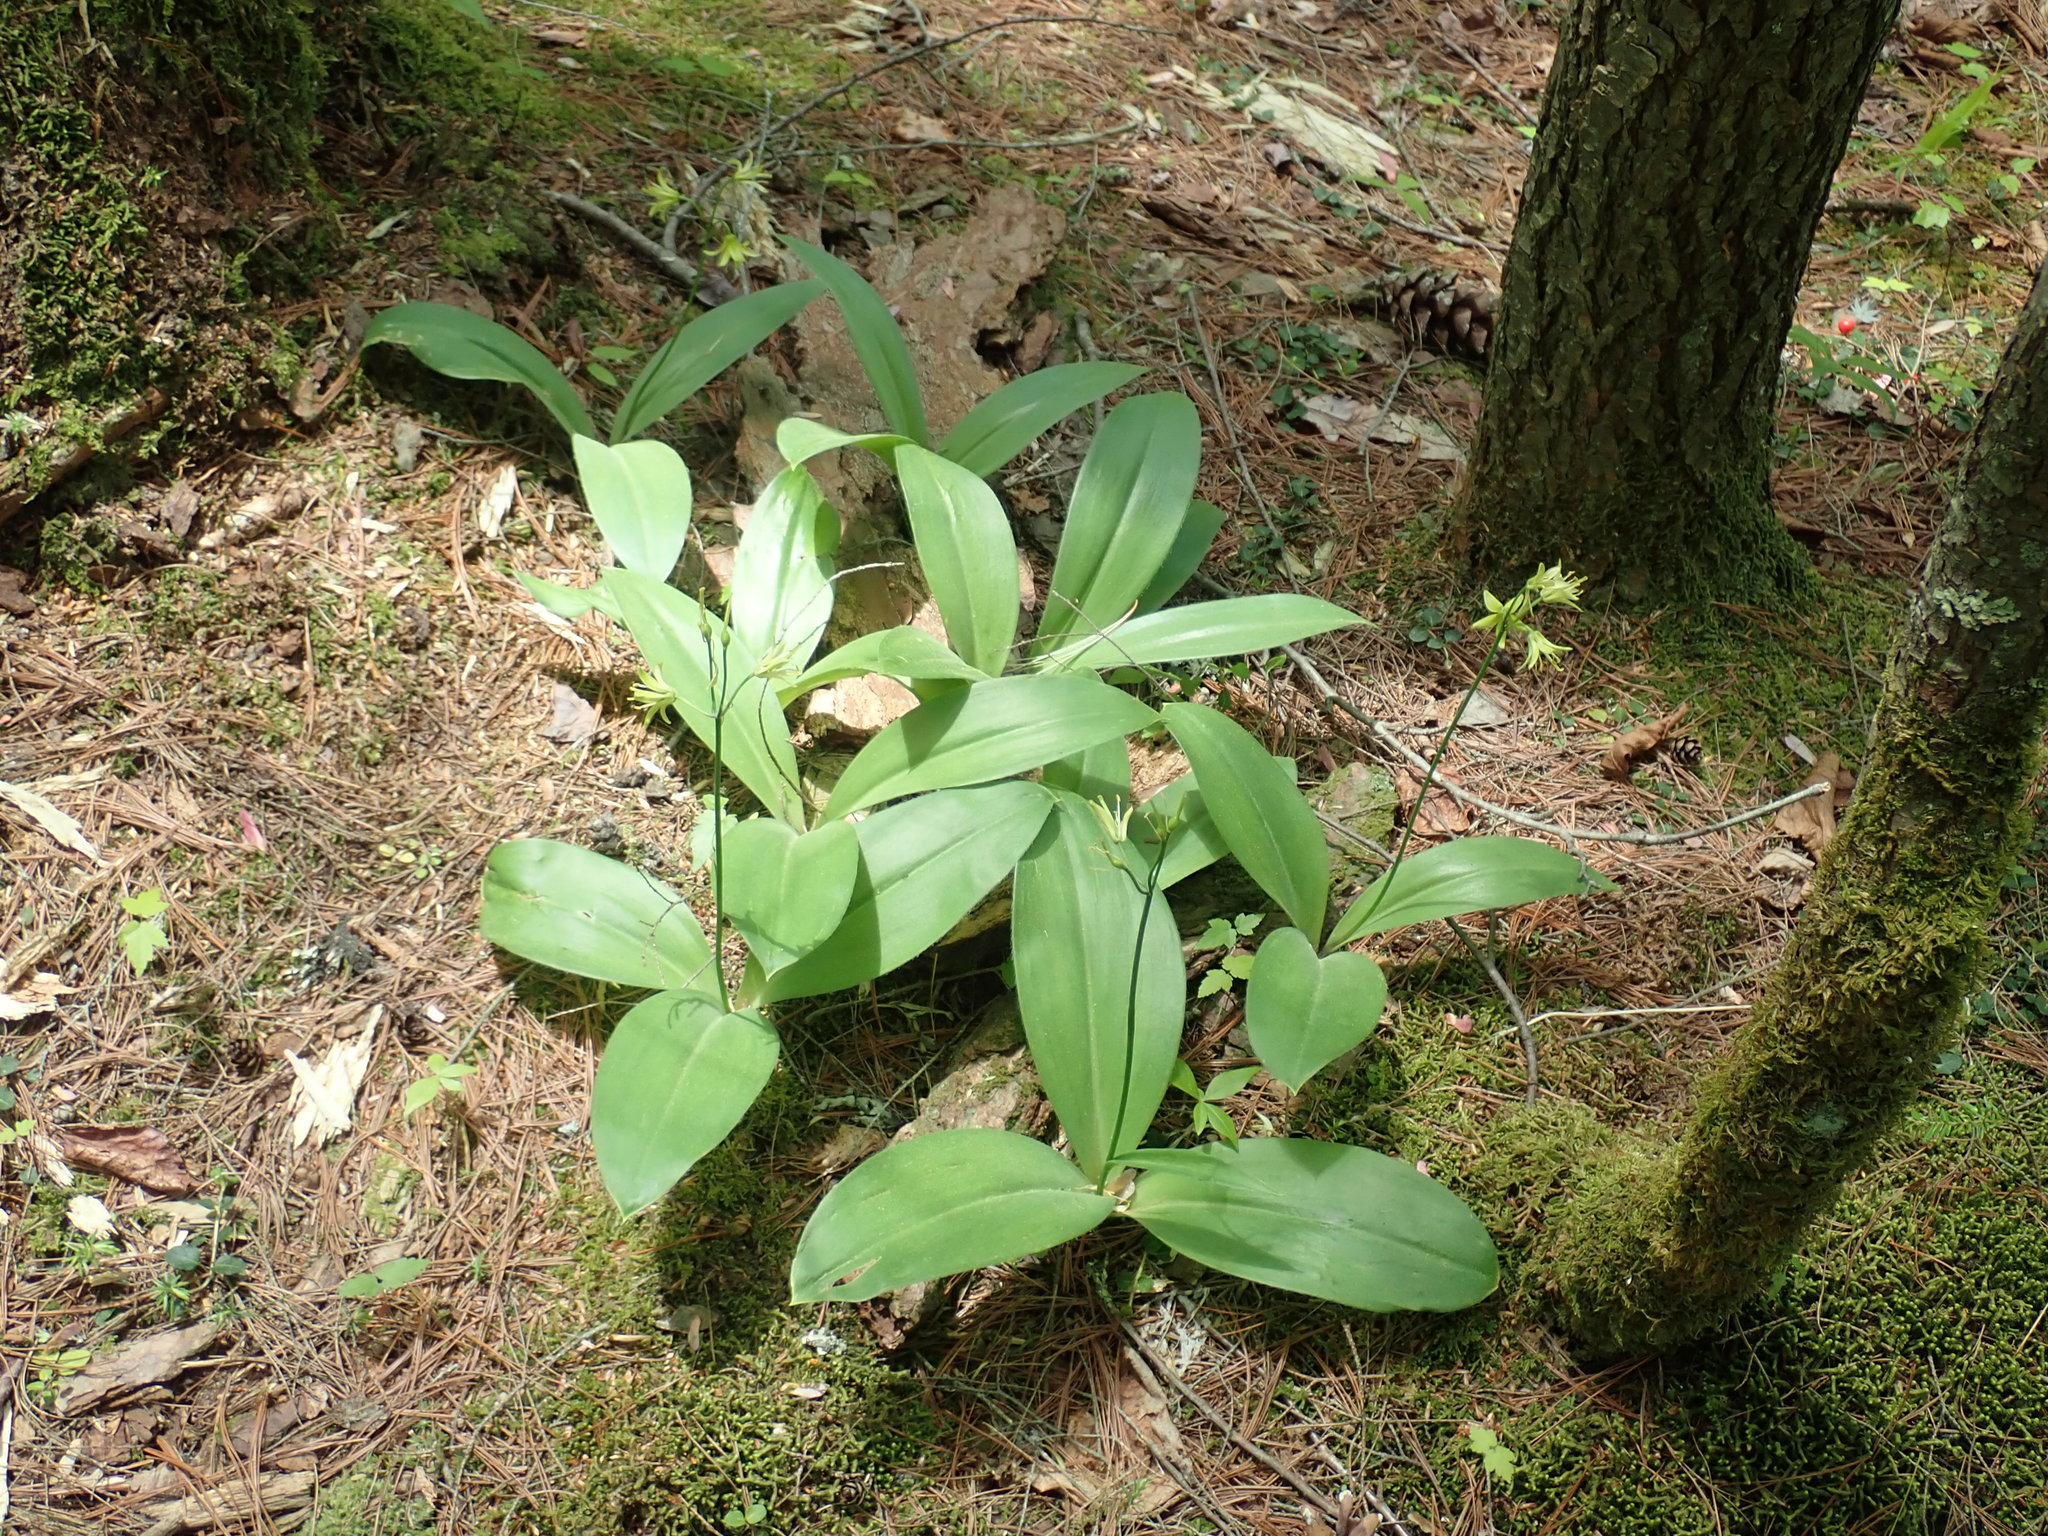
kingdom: Plantae
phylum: Tracheophyta
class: Liliopsida
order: Liliales
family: Liliaceae
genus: Clintonia
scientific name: Clintonia borealis
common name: Yellow clintonia
